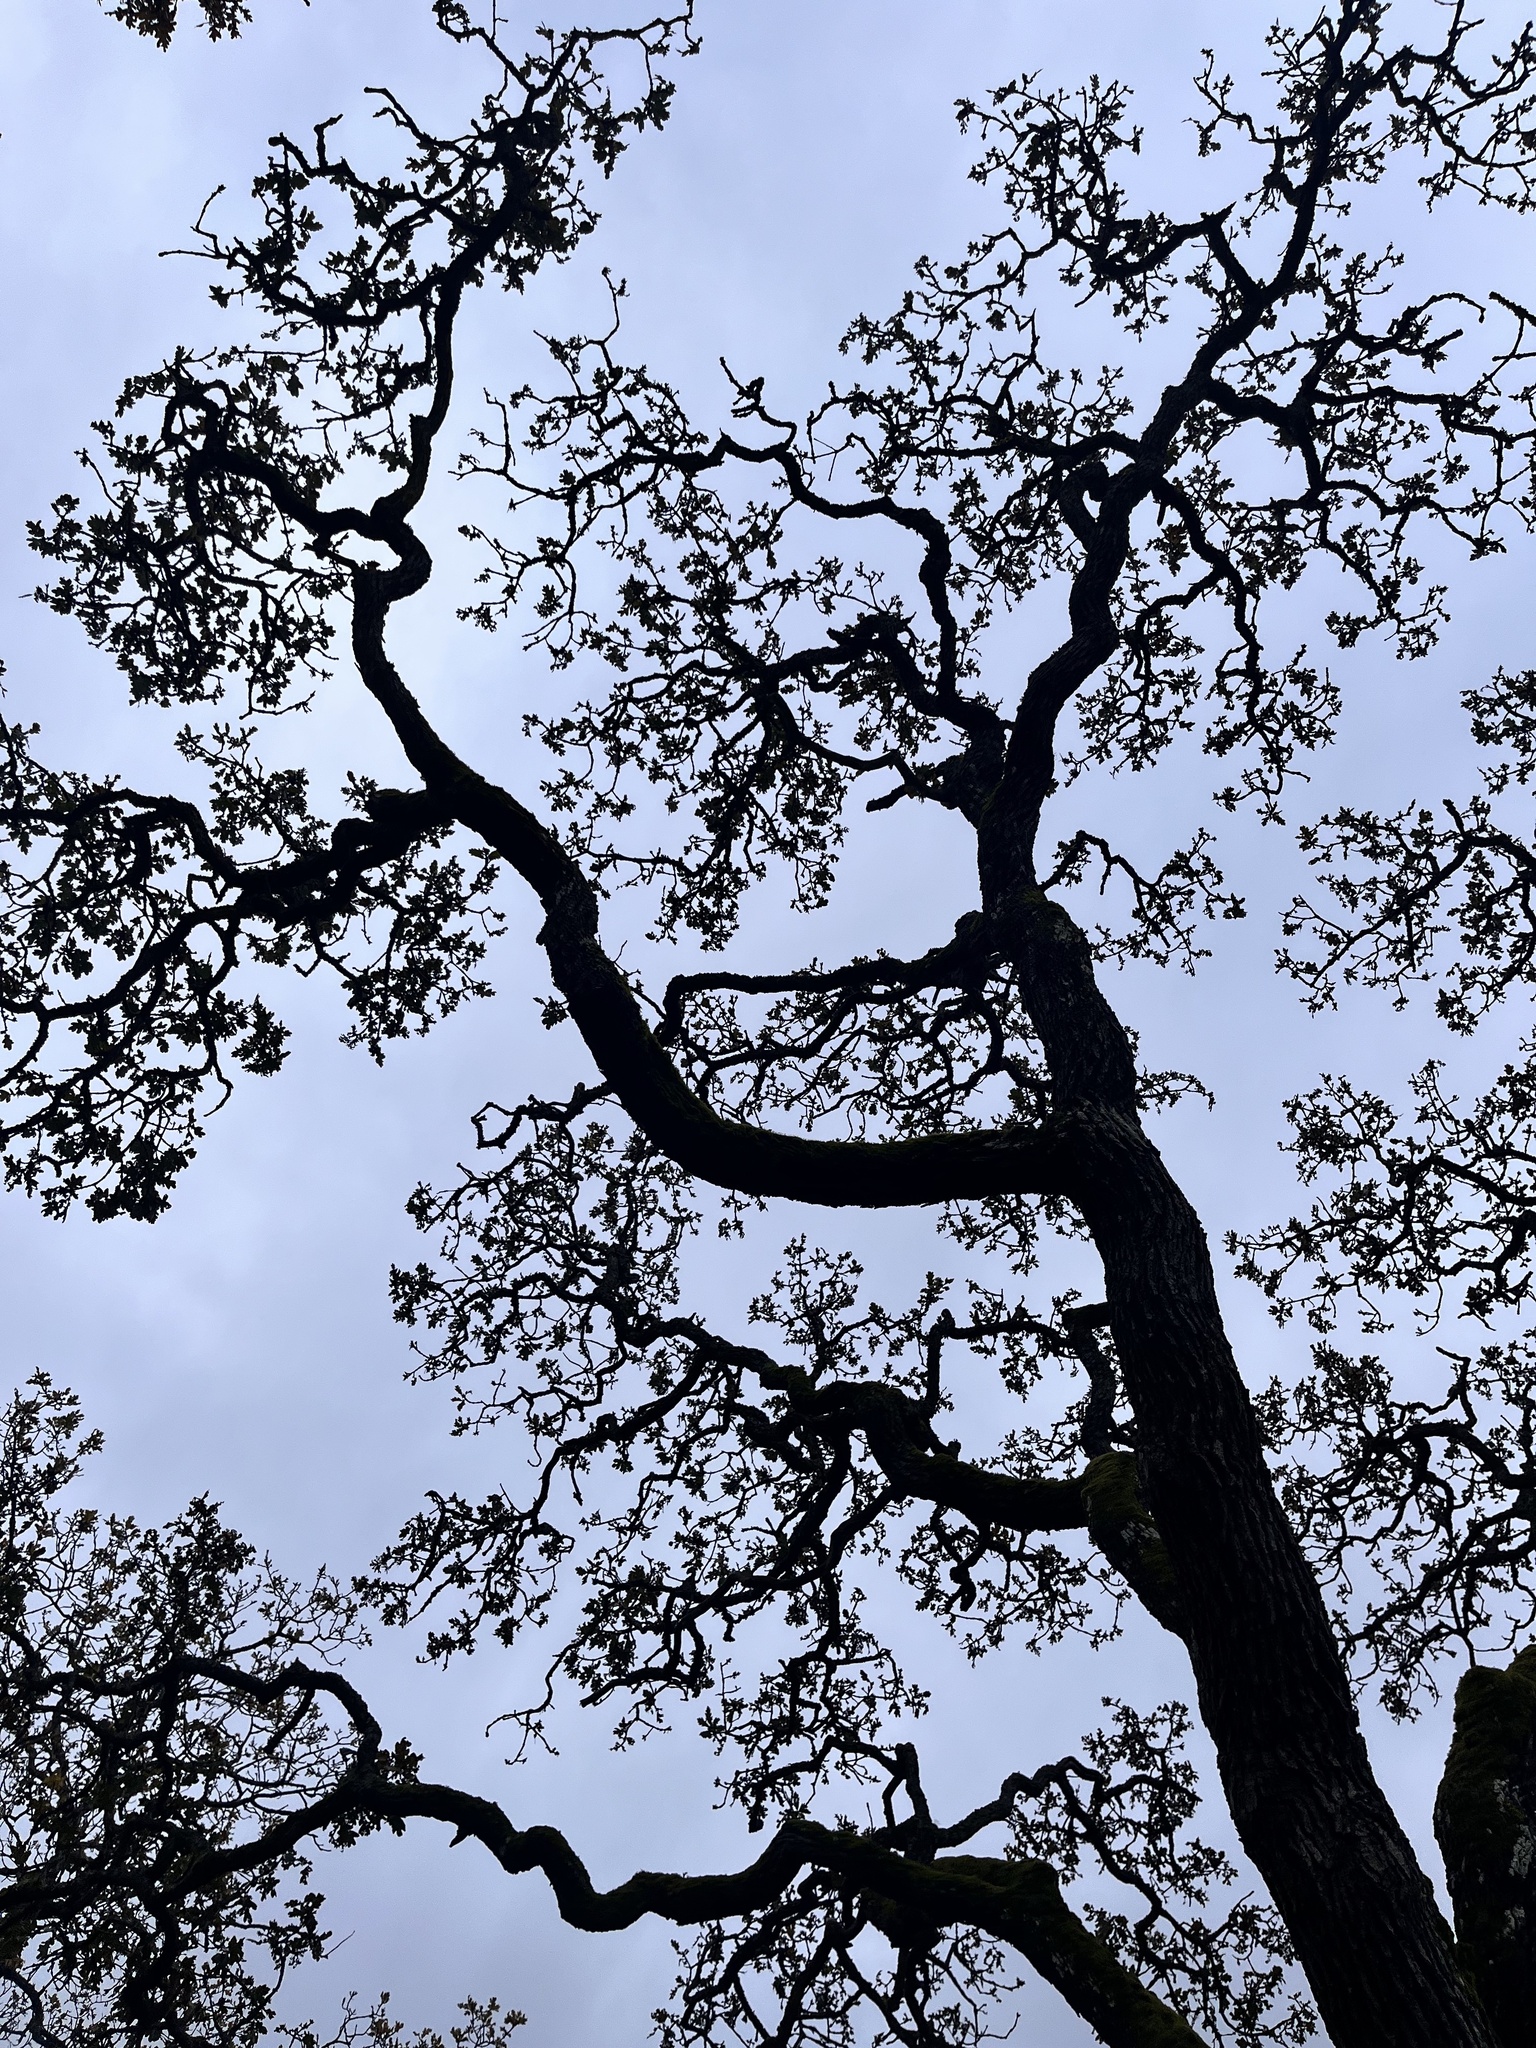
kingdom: Plantae
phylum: Tracheophyta
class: Magnoliopsida
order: Fagales
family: Fagaceae
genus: Quercus
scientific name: Quercus garryana
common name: Garry oak
